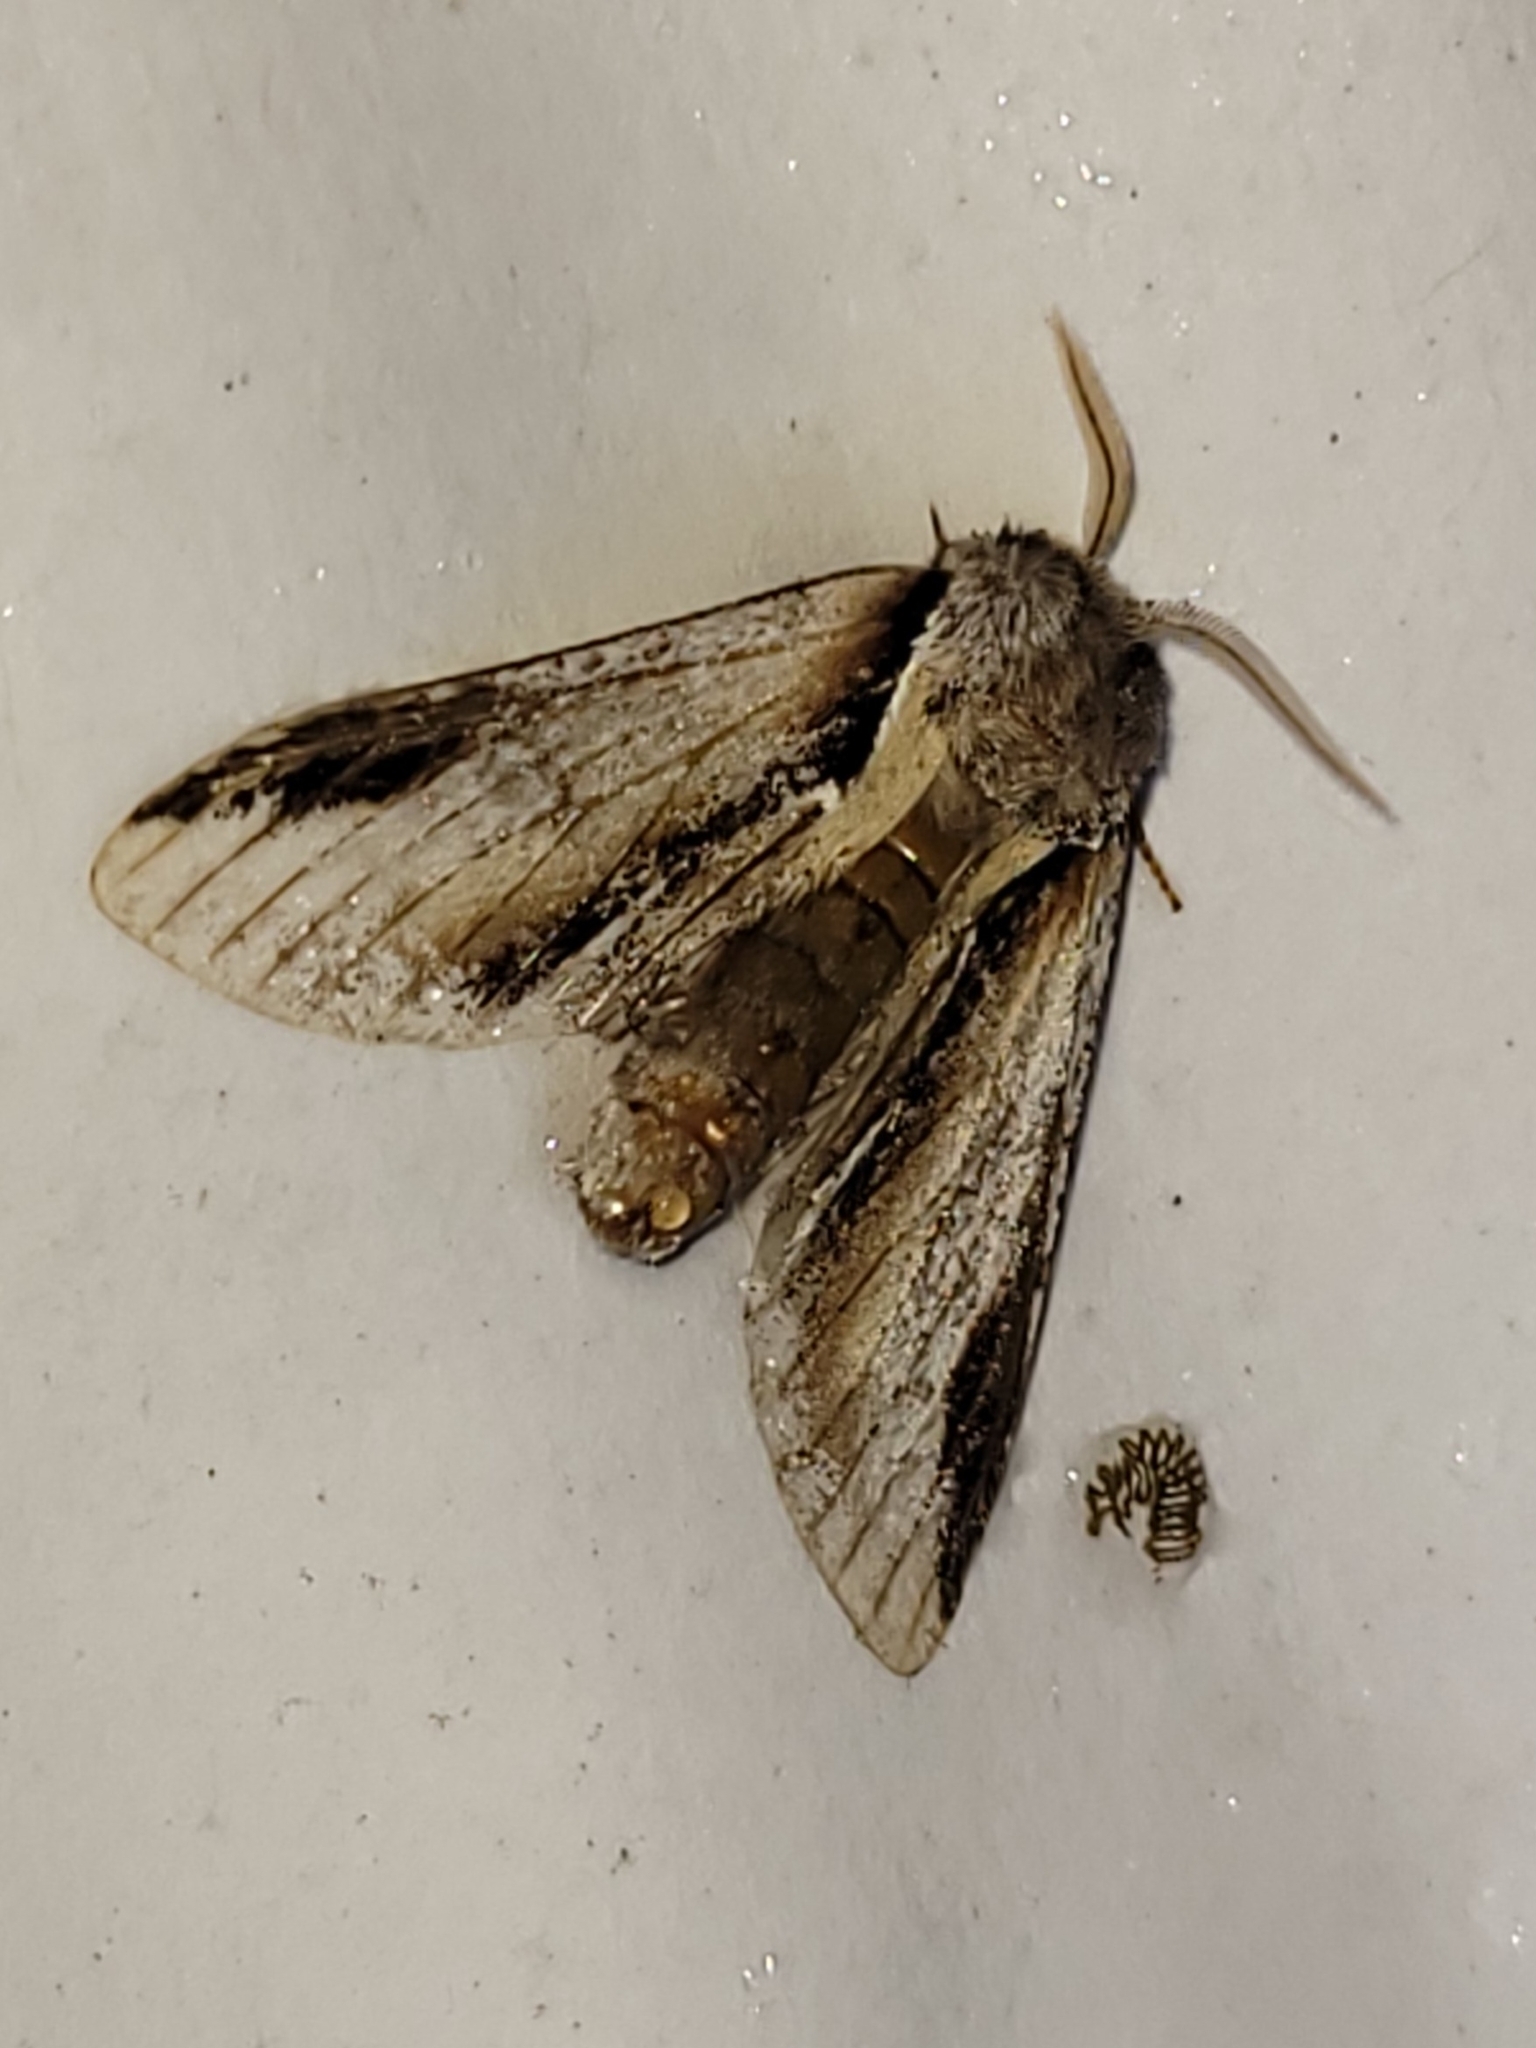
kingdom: Animalia
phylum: Arthropoda
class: Insecta
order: Lepidoptera
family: Notodontidae
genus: Pheosia
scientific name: Pheosia tremula
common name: Swallow prominent
